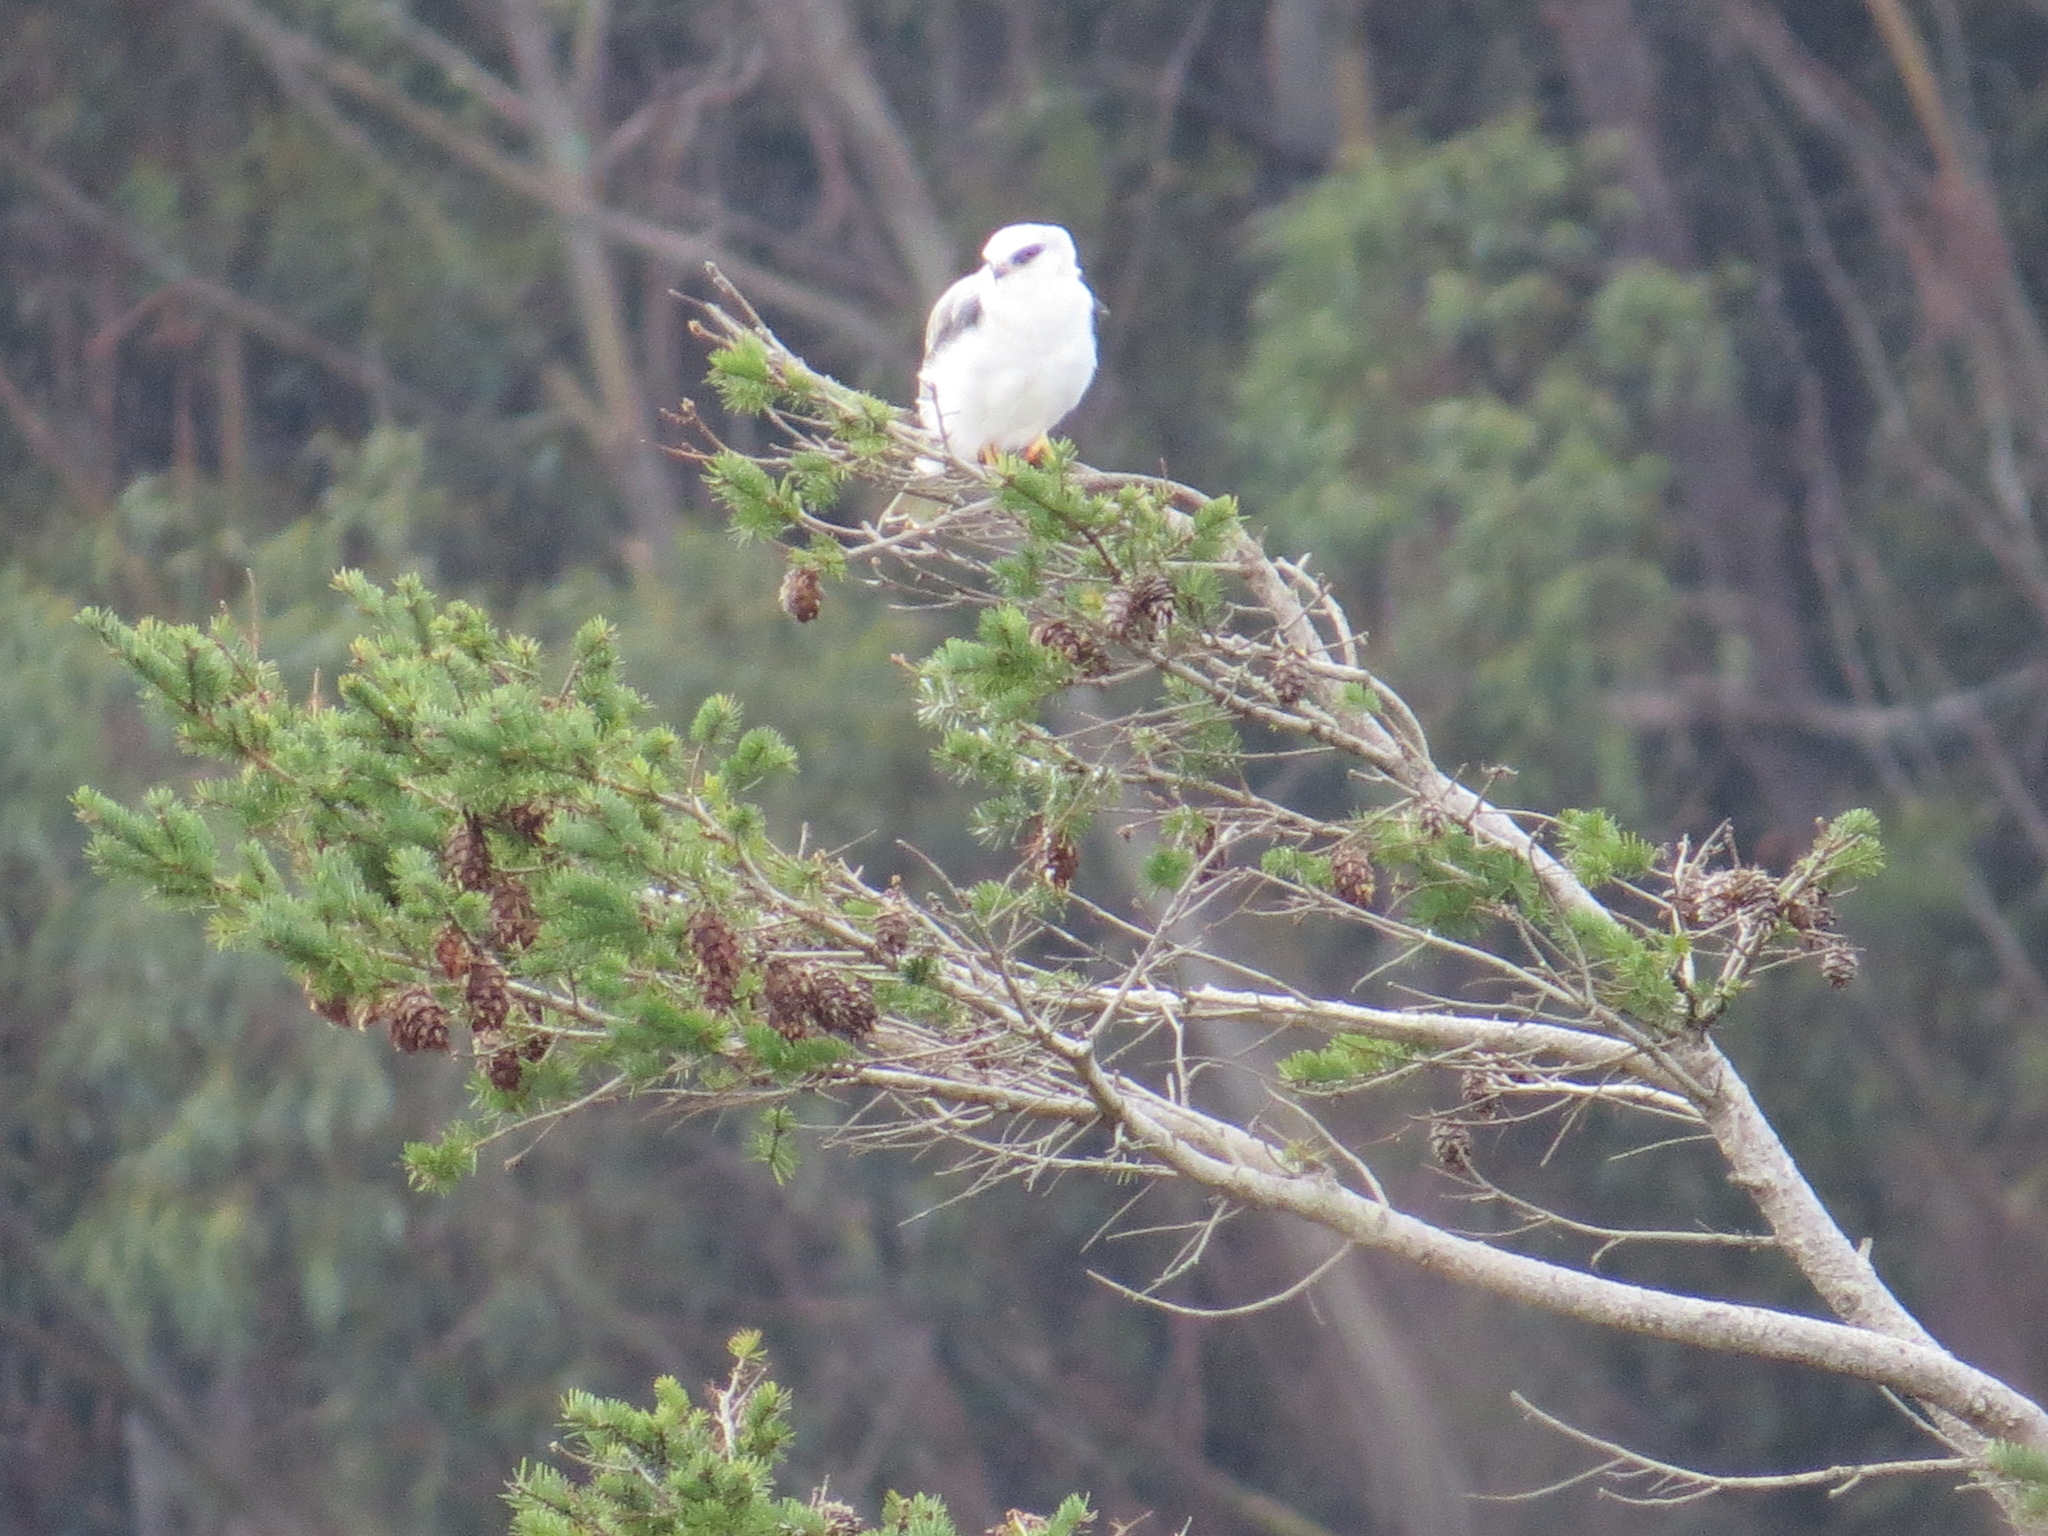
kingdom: Animalia
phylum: Chordata
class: Aves
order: Accipitriformes
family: Accipitridae
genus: Elanus
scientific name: Elanus leucurus
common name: White-tailed kite
